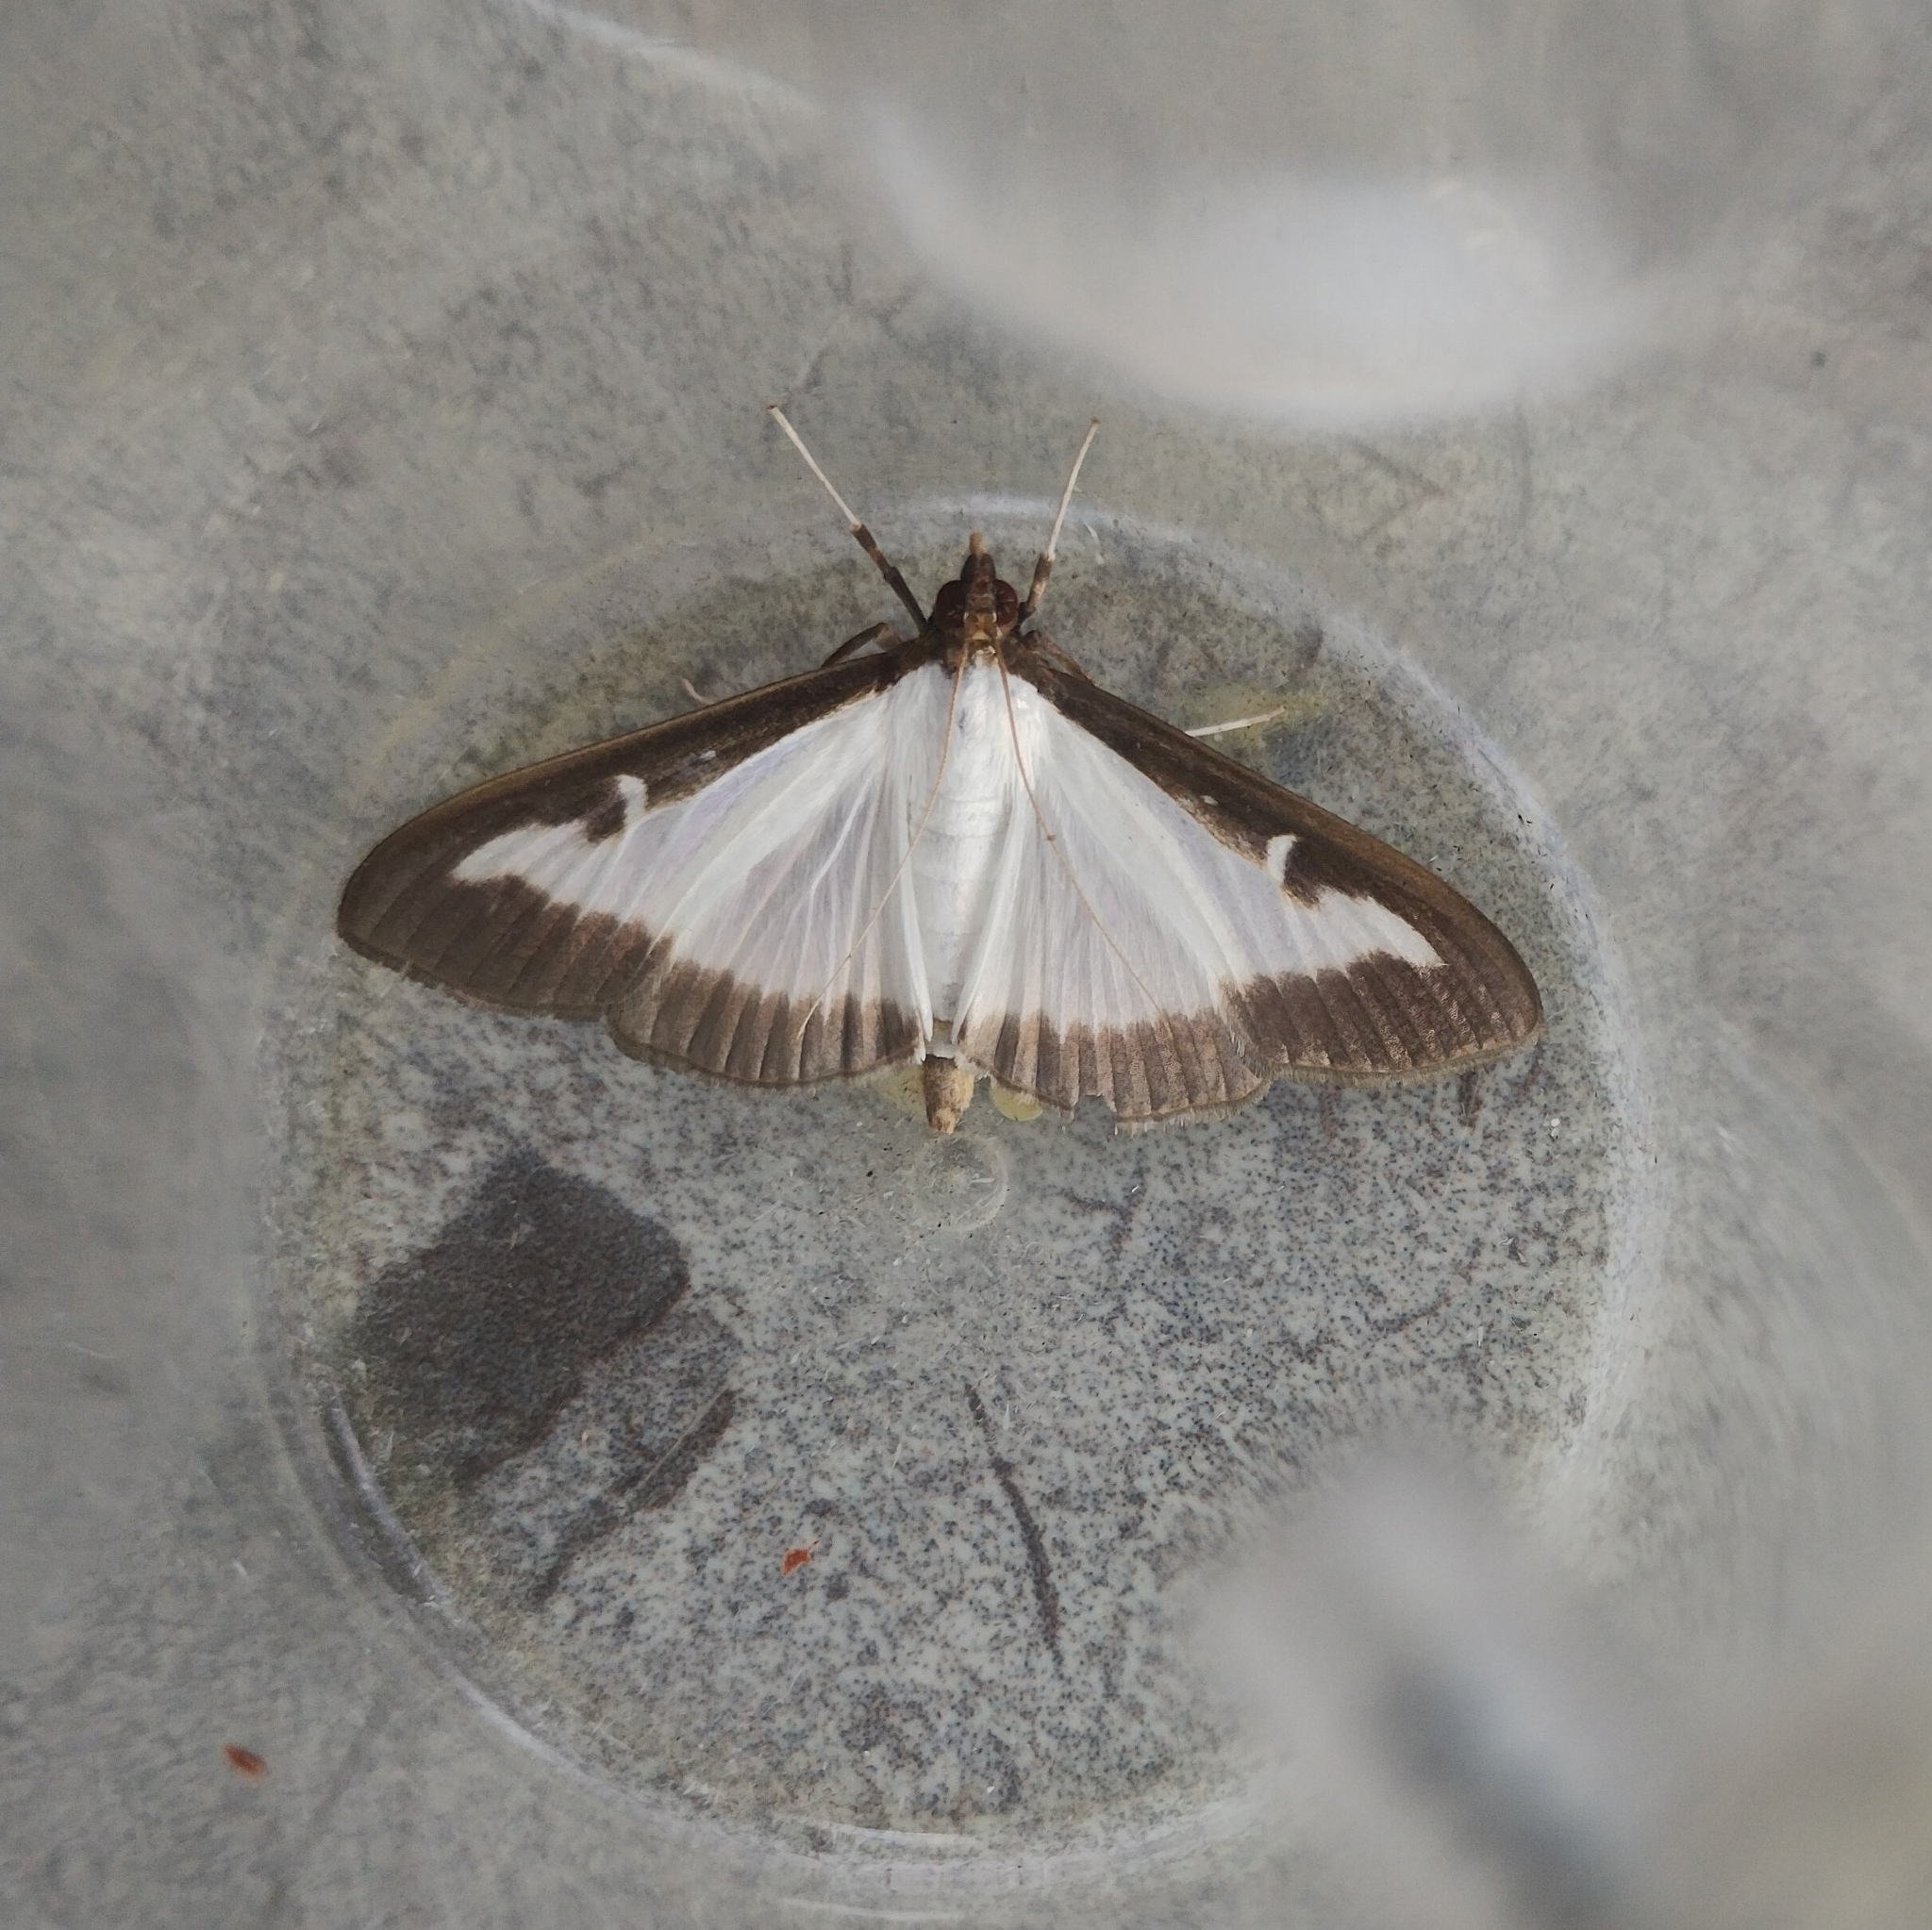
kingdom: Animalia
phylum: Arthropoda
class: Insecta
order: Lepidoptera
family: Crambidae
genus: Cydalima
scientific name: Cydalima perspectalis
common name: Box tree moth
